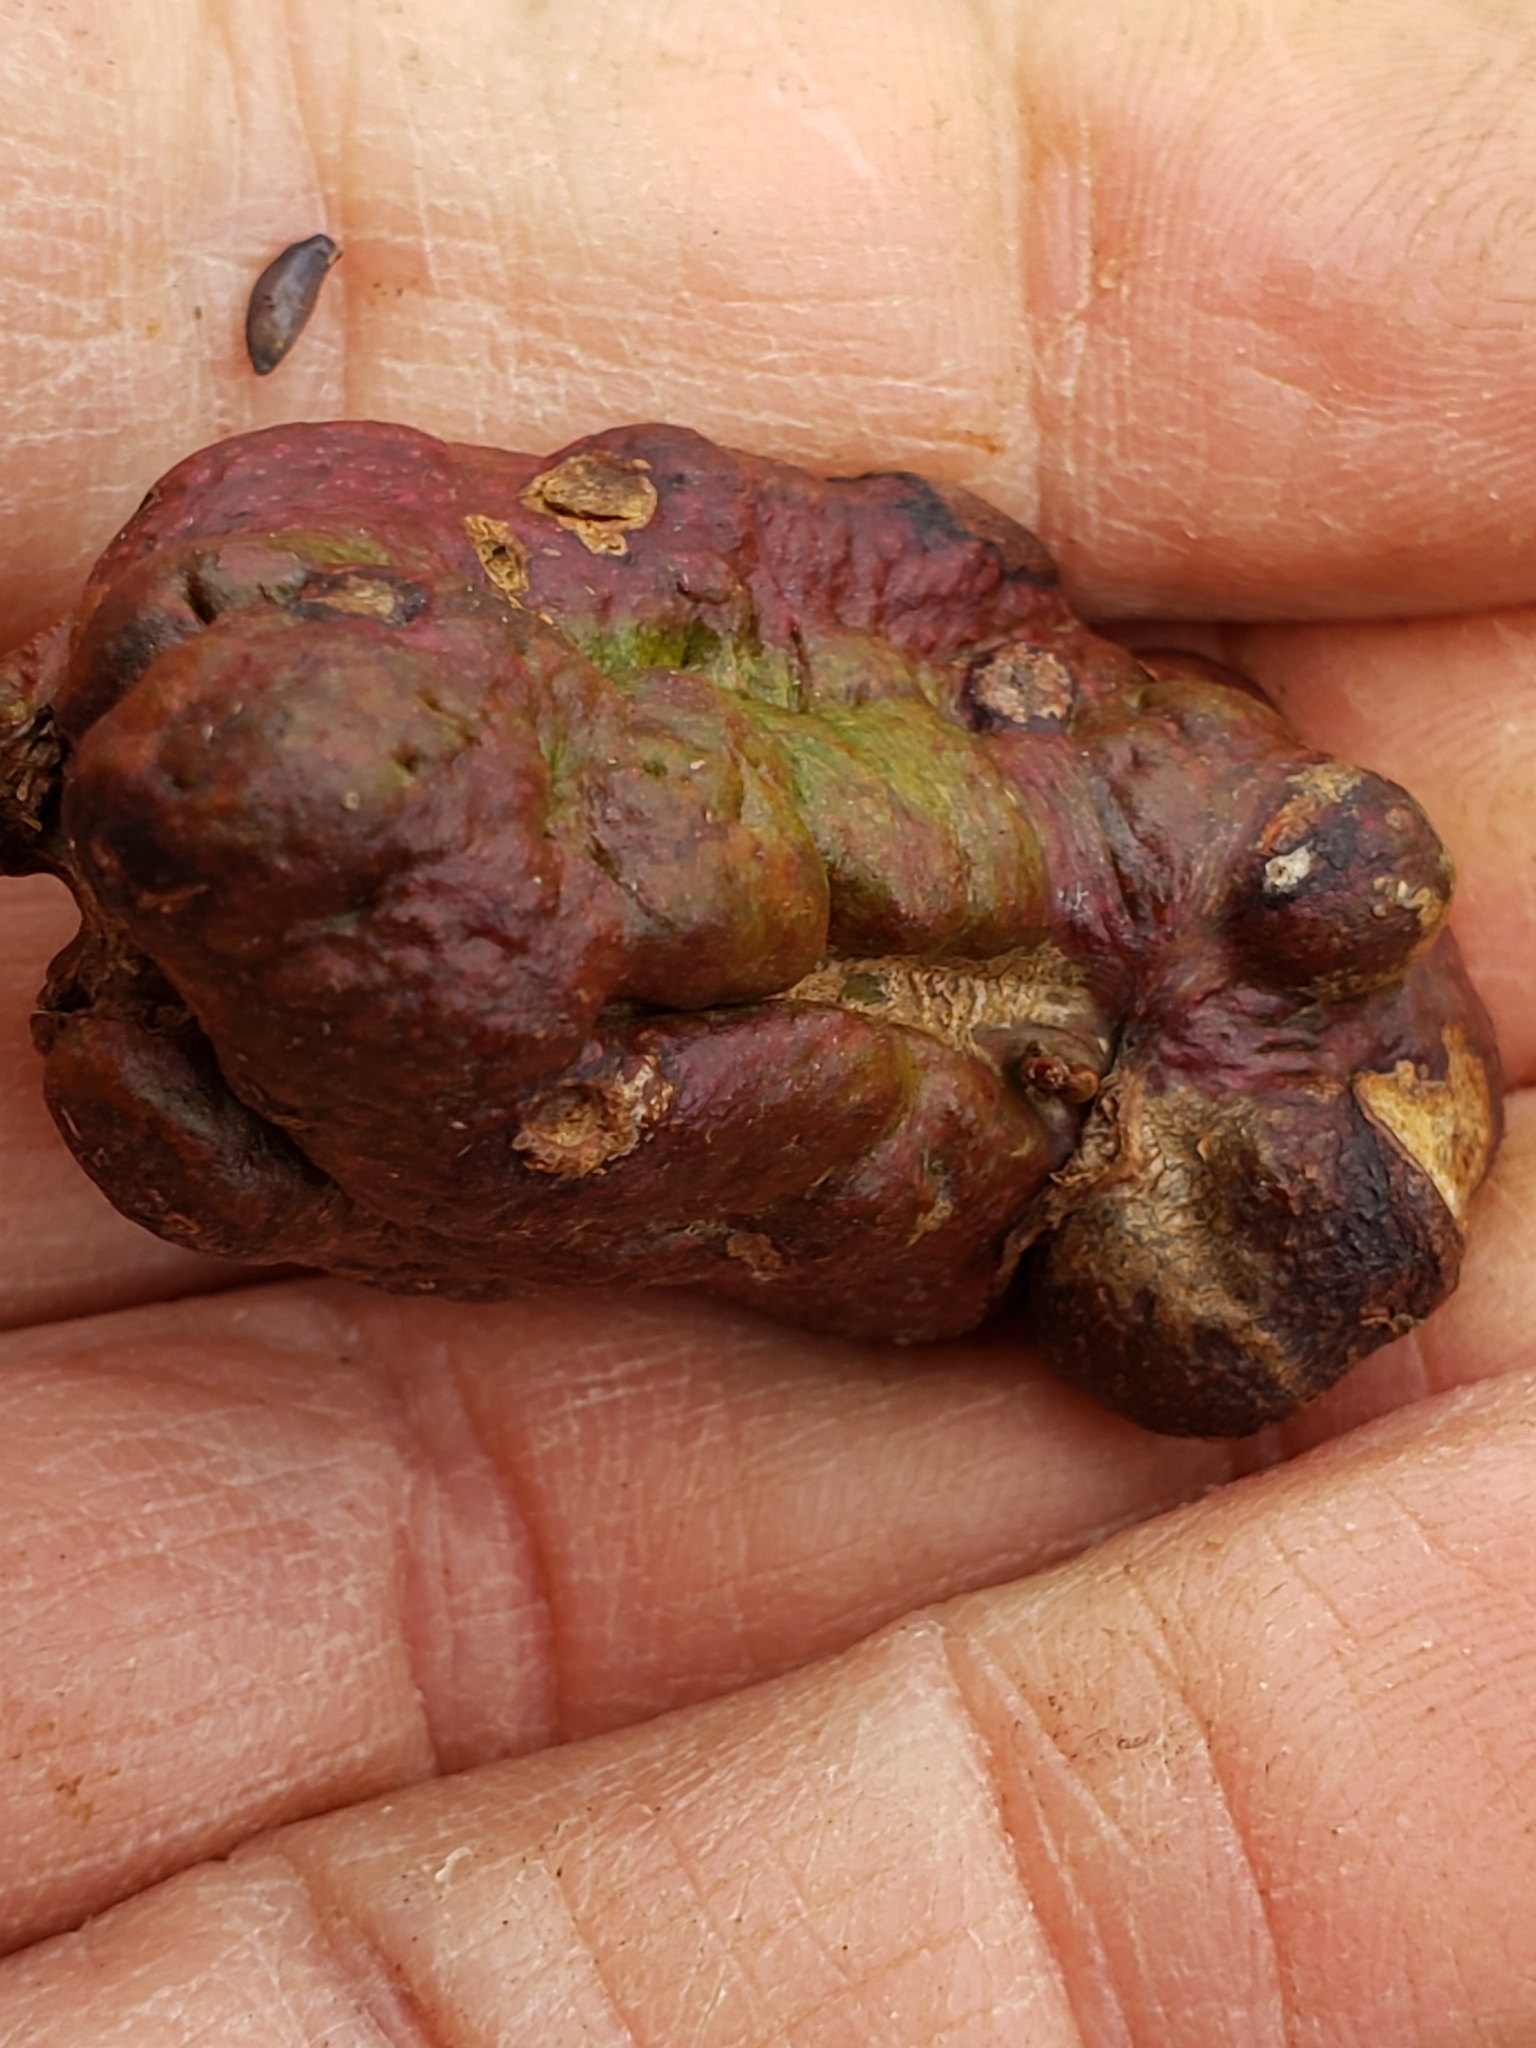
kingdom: Animalia
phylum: Arthropoda
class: Insecta
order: Hymenoptera
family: Cynipidae
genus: Diastrophus
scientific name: Diastrophus
